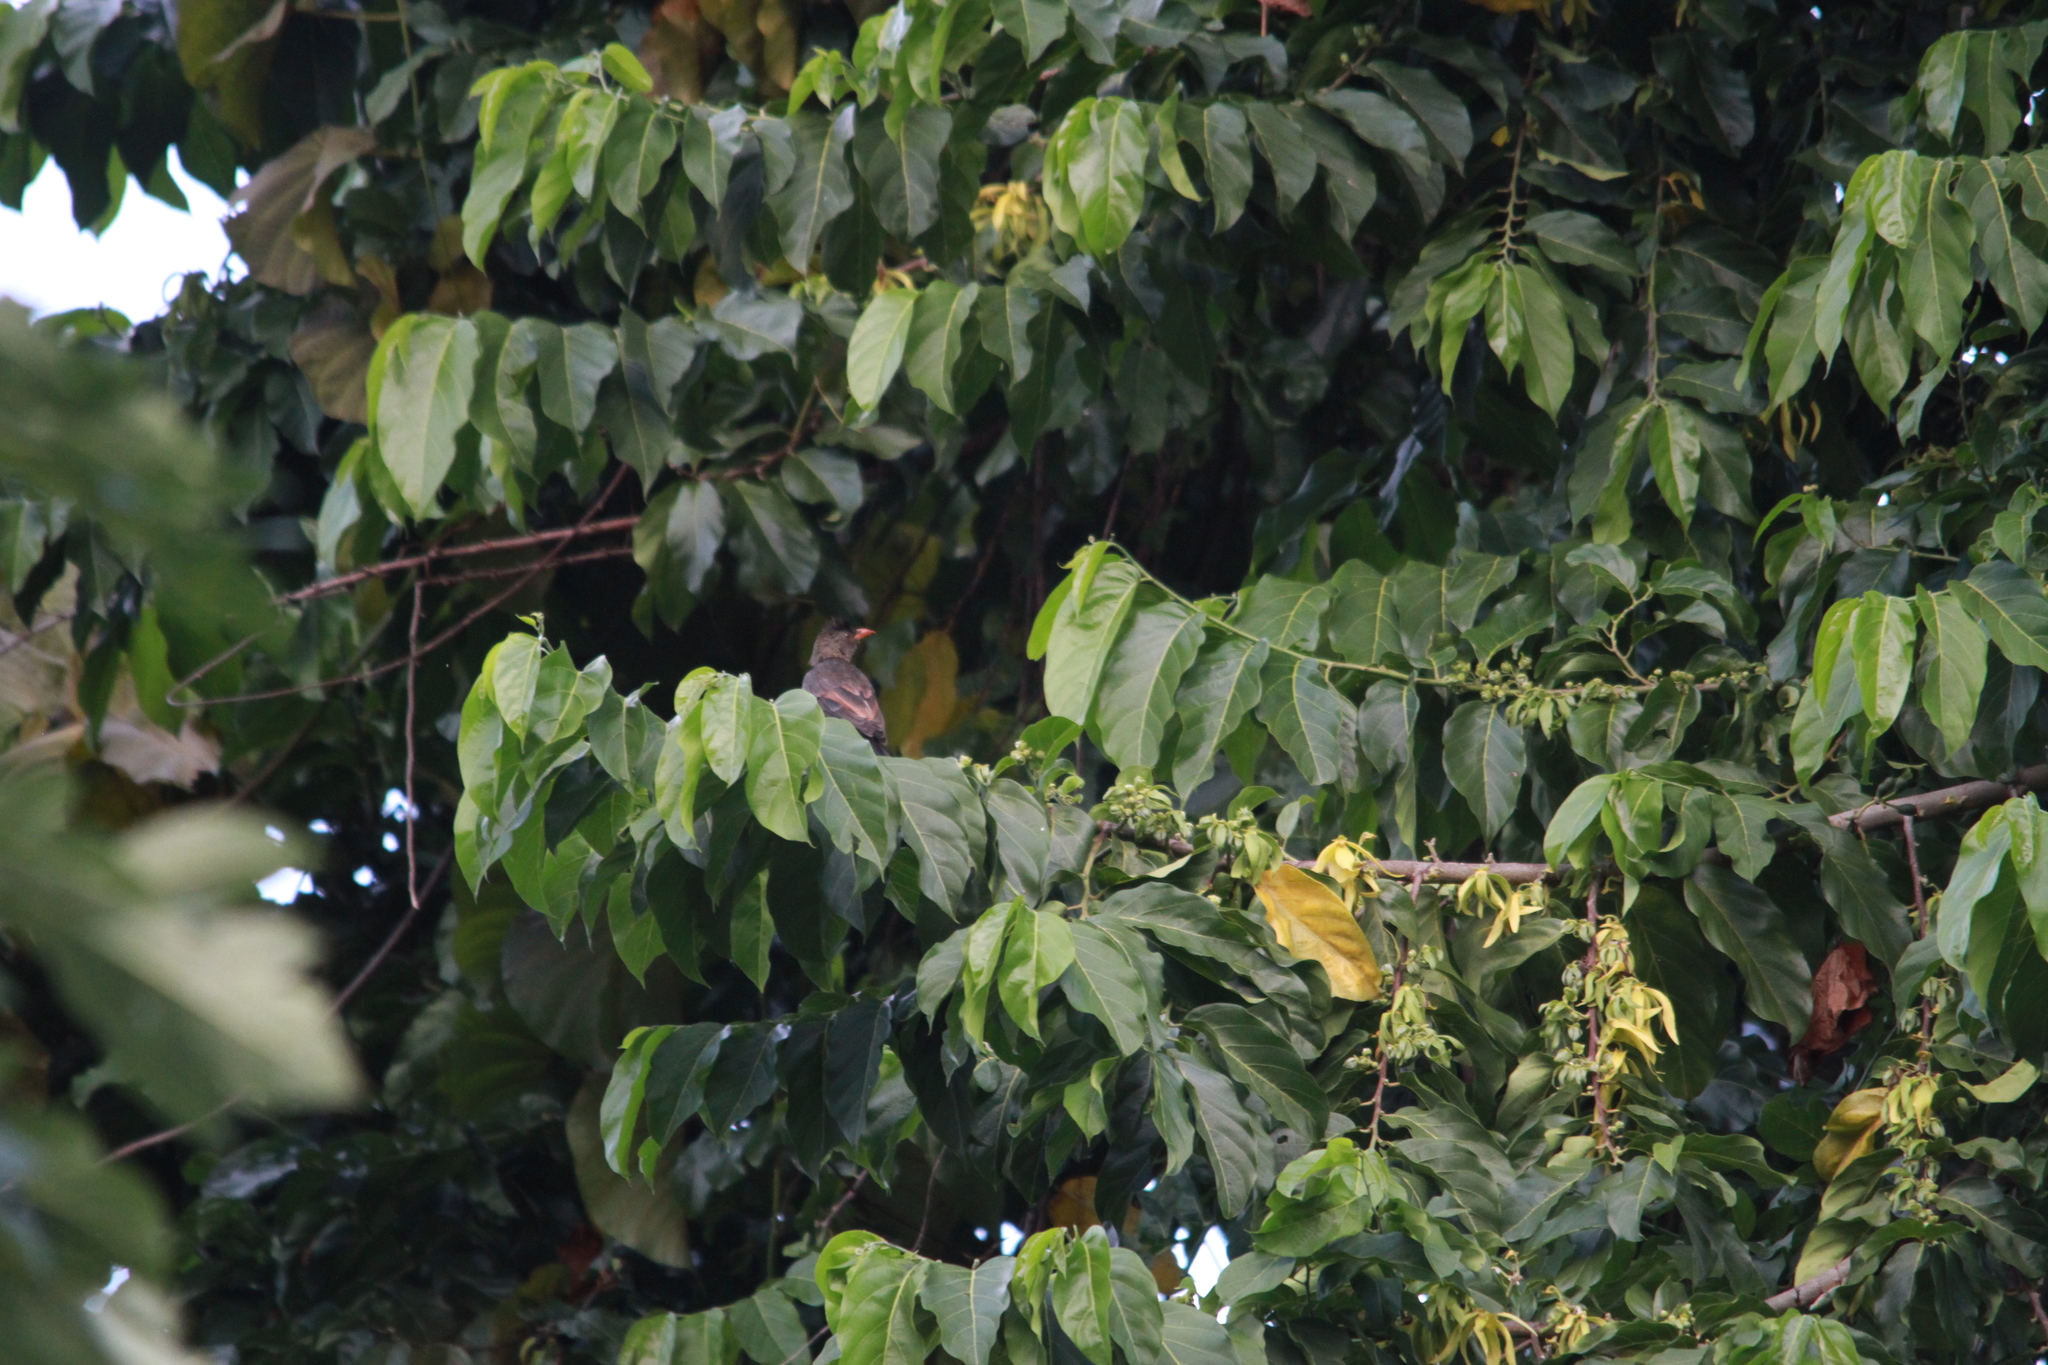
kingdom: Animalia
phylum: Chordata
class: Aves
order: Passeriformes
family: Pycnonotidae
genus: Hypsipetes
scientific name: Hypsipetes crassirostris
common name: Seychelles bulbul
